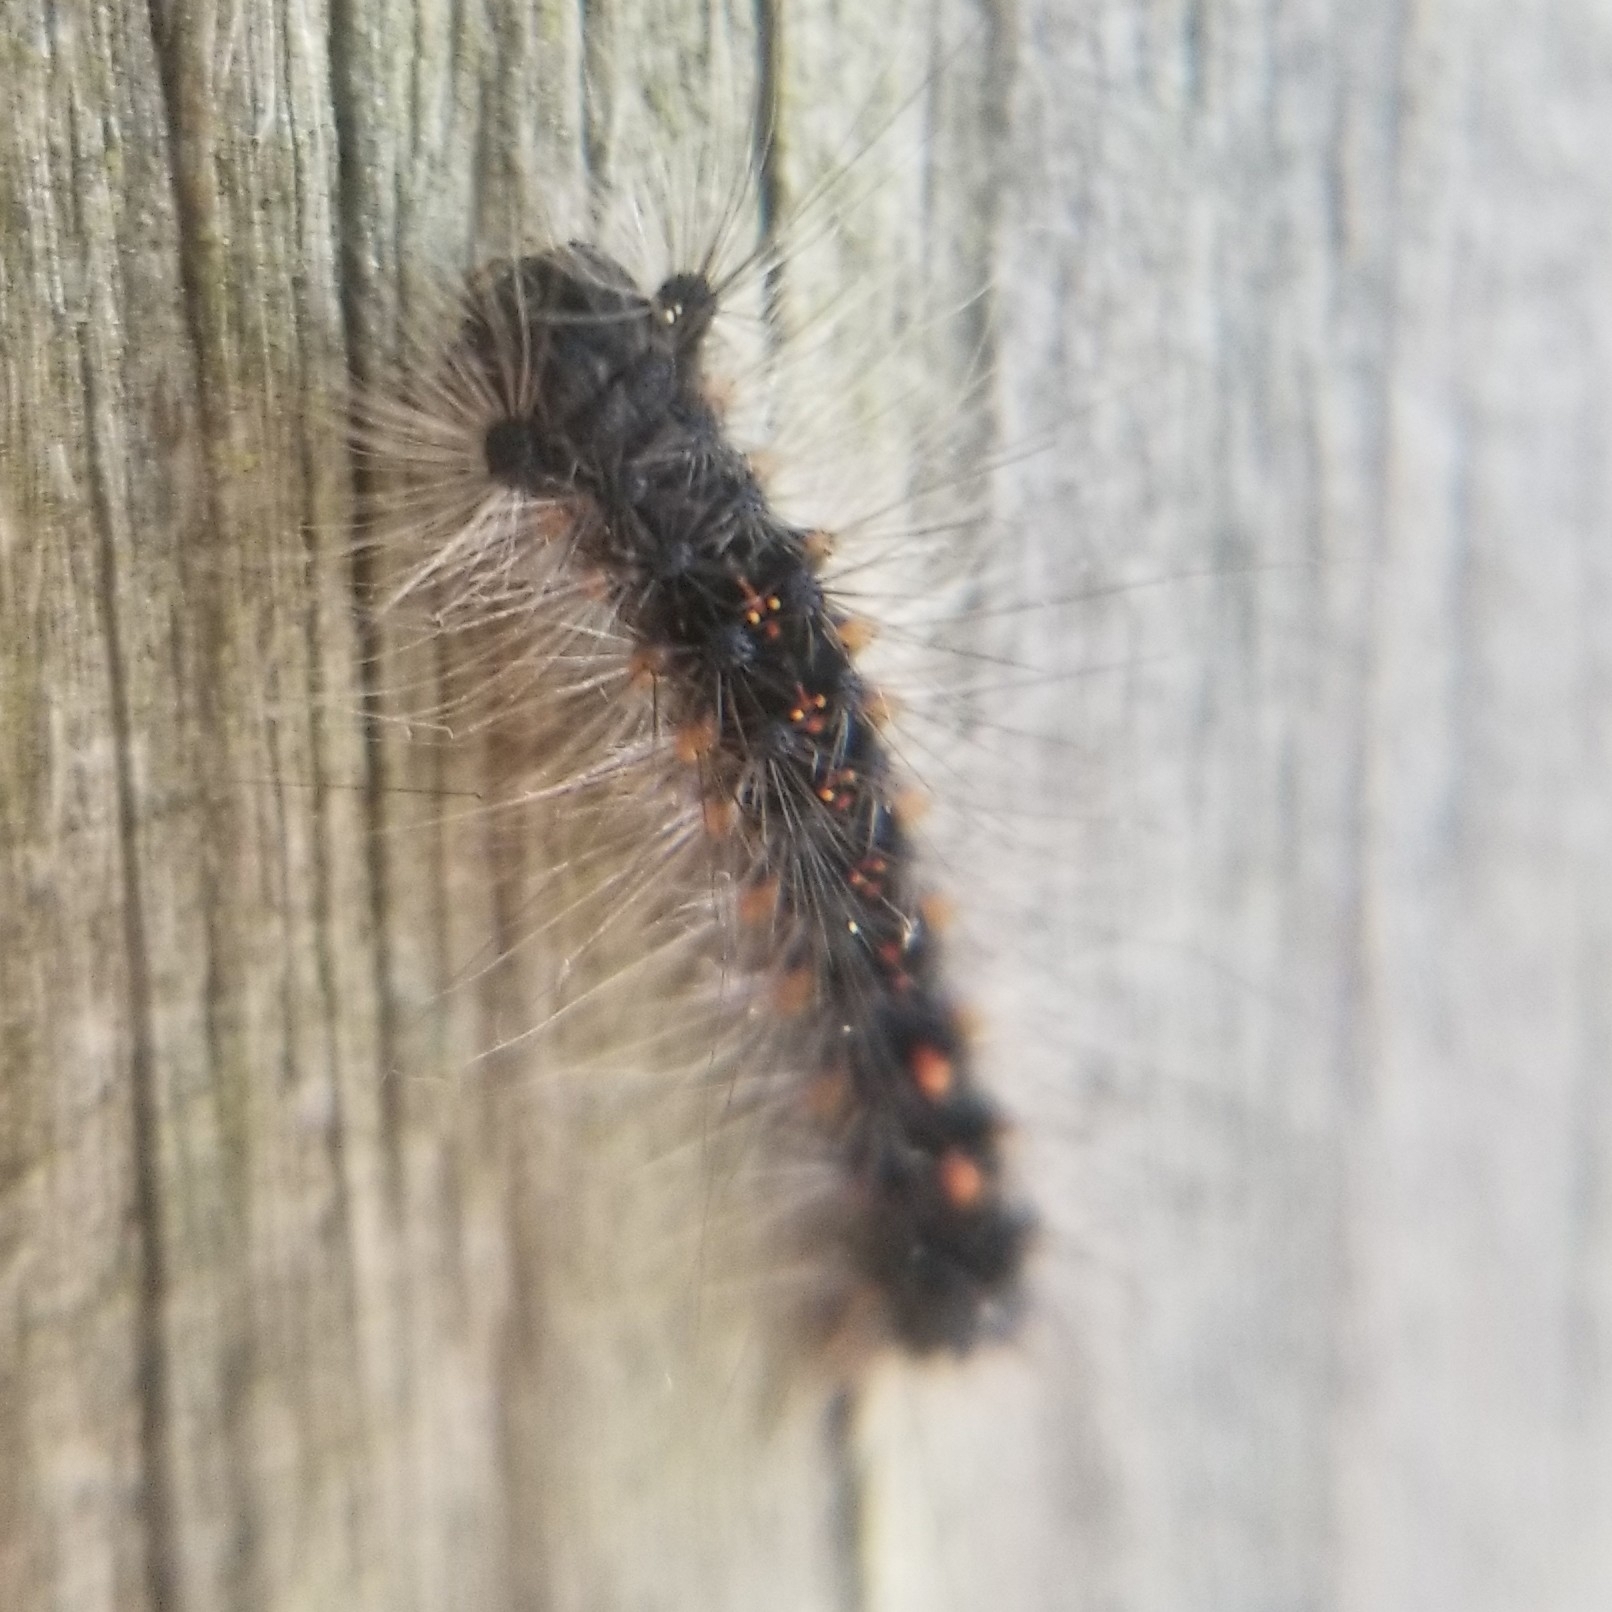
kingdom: Animalia
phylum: Arthropoda
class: Insecta
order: Lepidoptera
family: Erebidae
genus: Lymantria
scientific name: Lymantria dispar
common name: Gypsy moth
